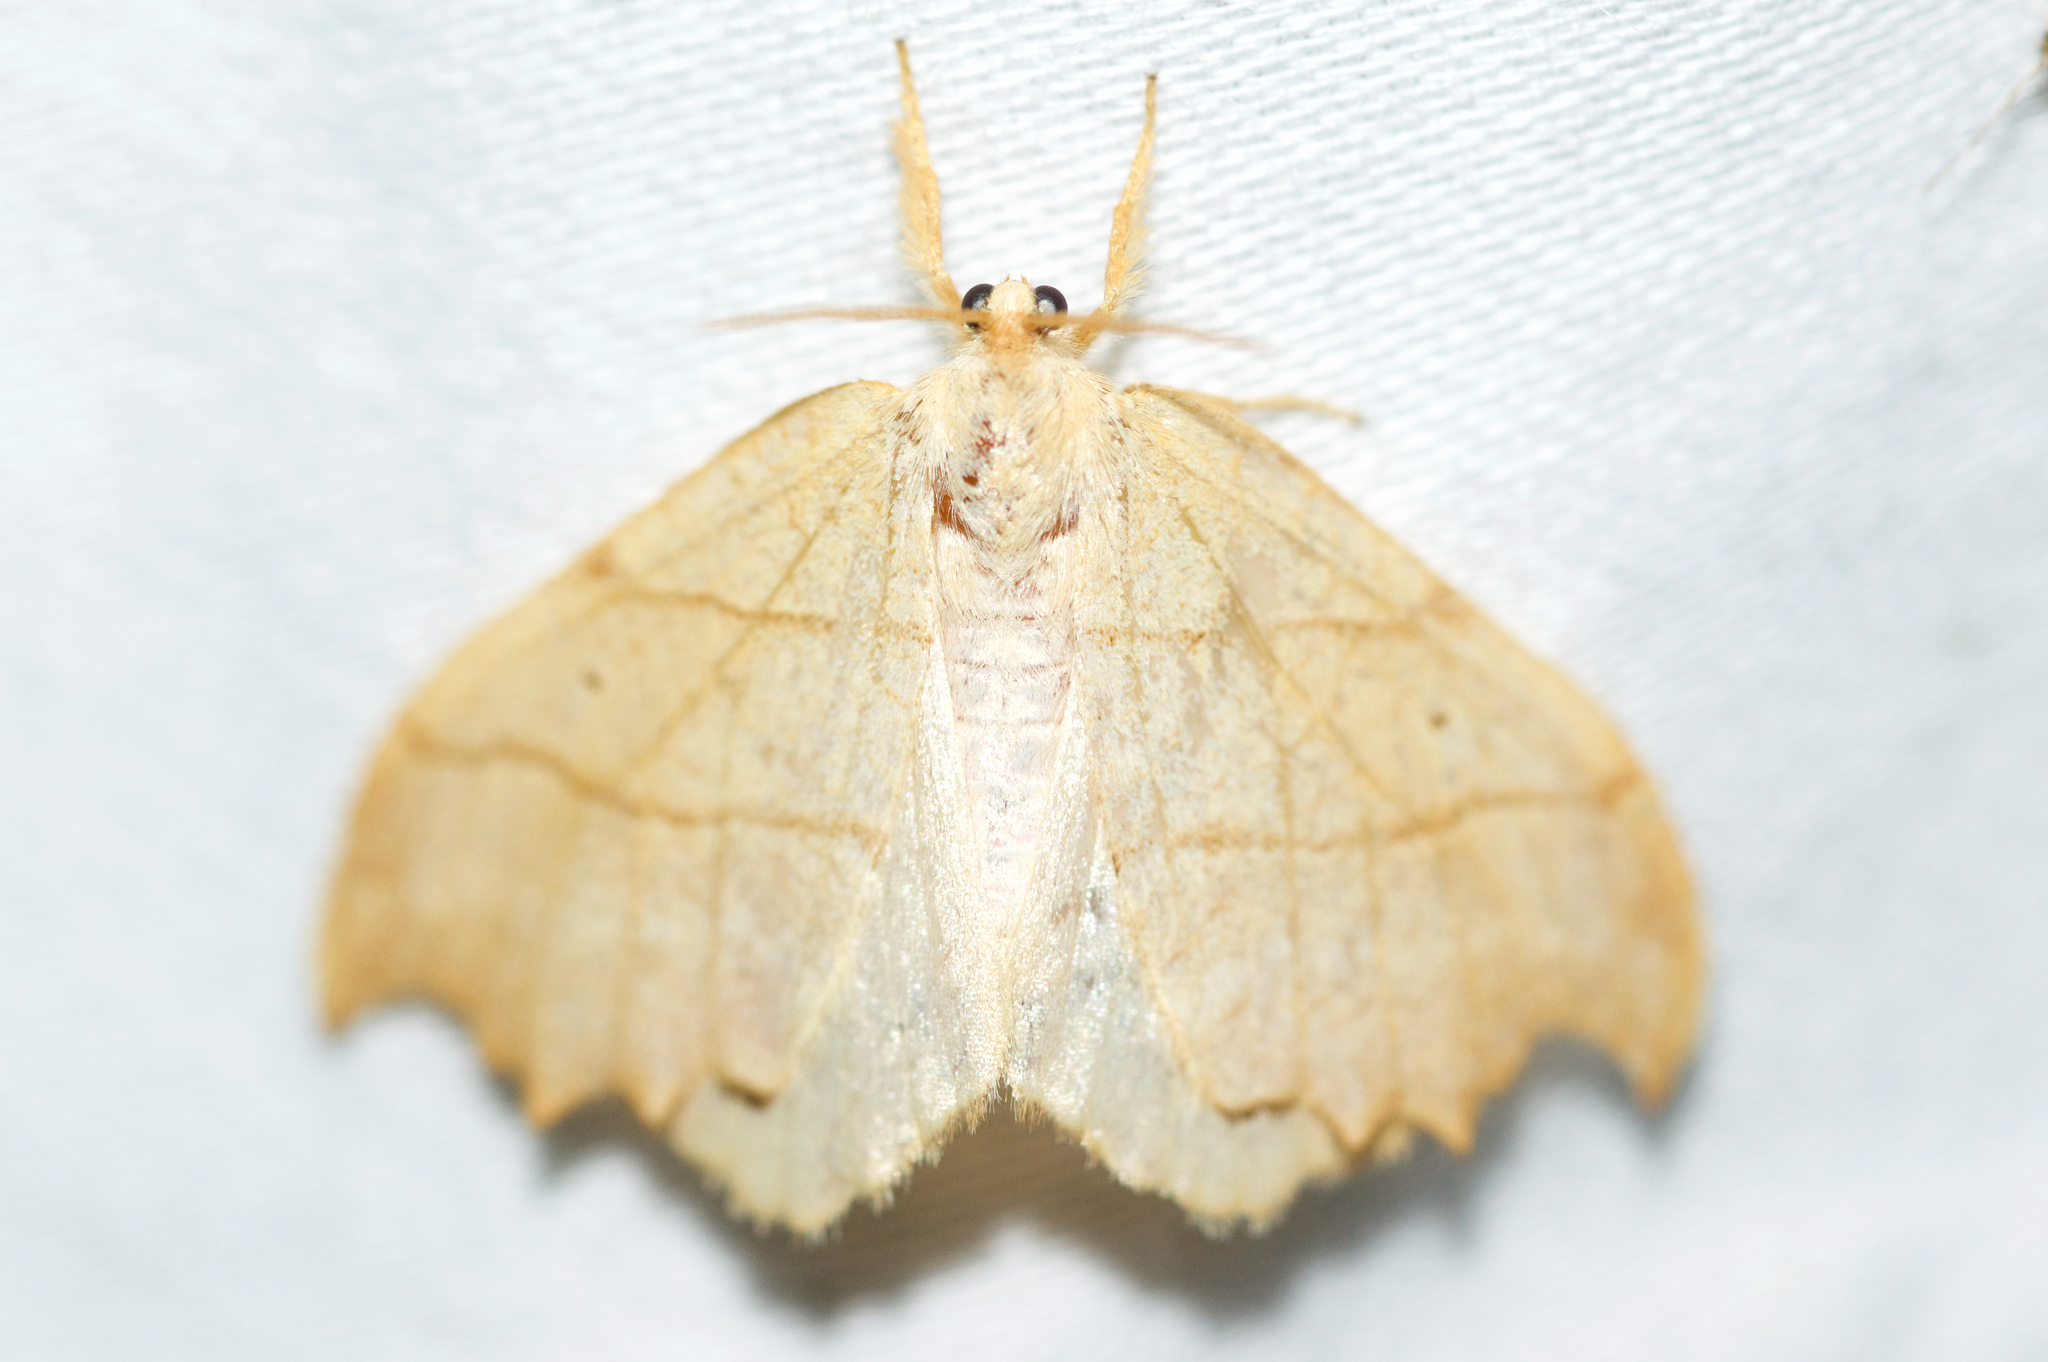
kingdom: Animalia
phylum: Arthropoda
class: Insecta
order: Lepidoptera
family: Drepanidae
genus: Falcaria
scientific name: Falcaria bilineata
